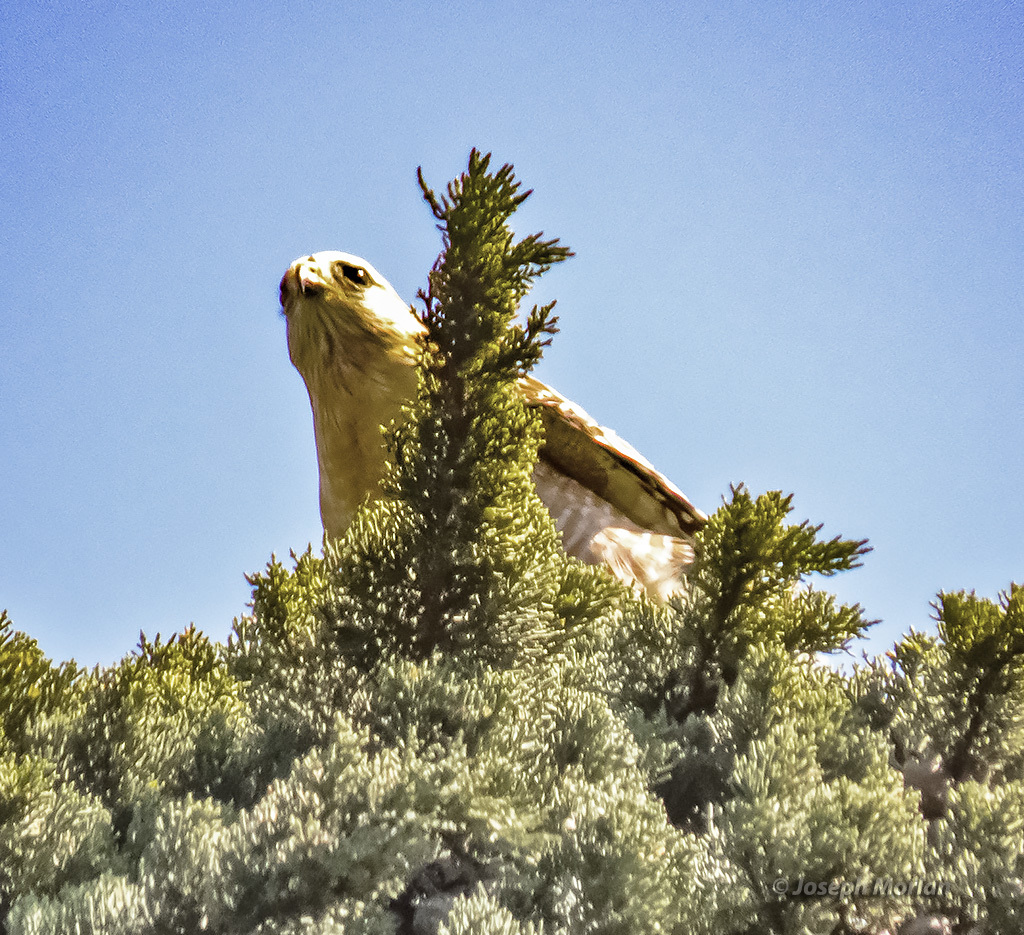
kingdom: Animalia
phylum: Chordata
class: Aves
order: Accipitriformes
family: Accipitridae
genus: Buteo
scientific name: Buteo lineatus
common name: Red-shouldered hawk
